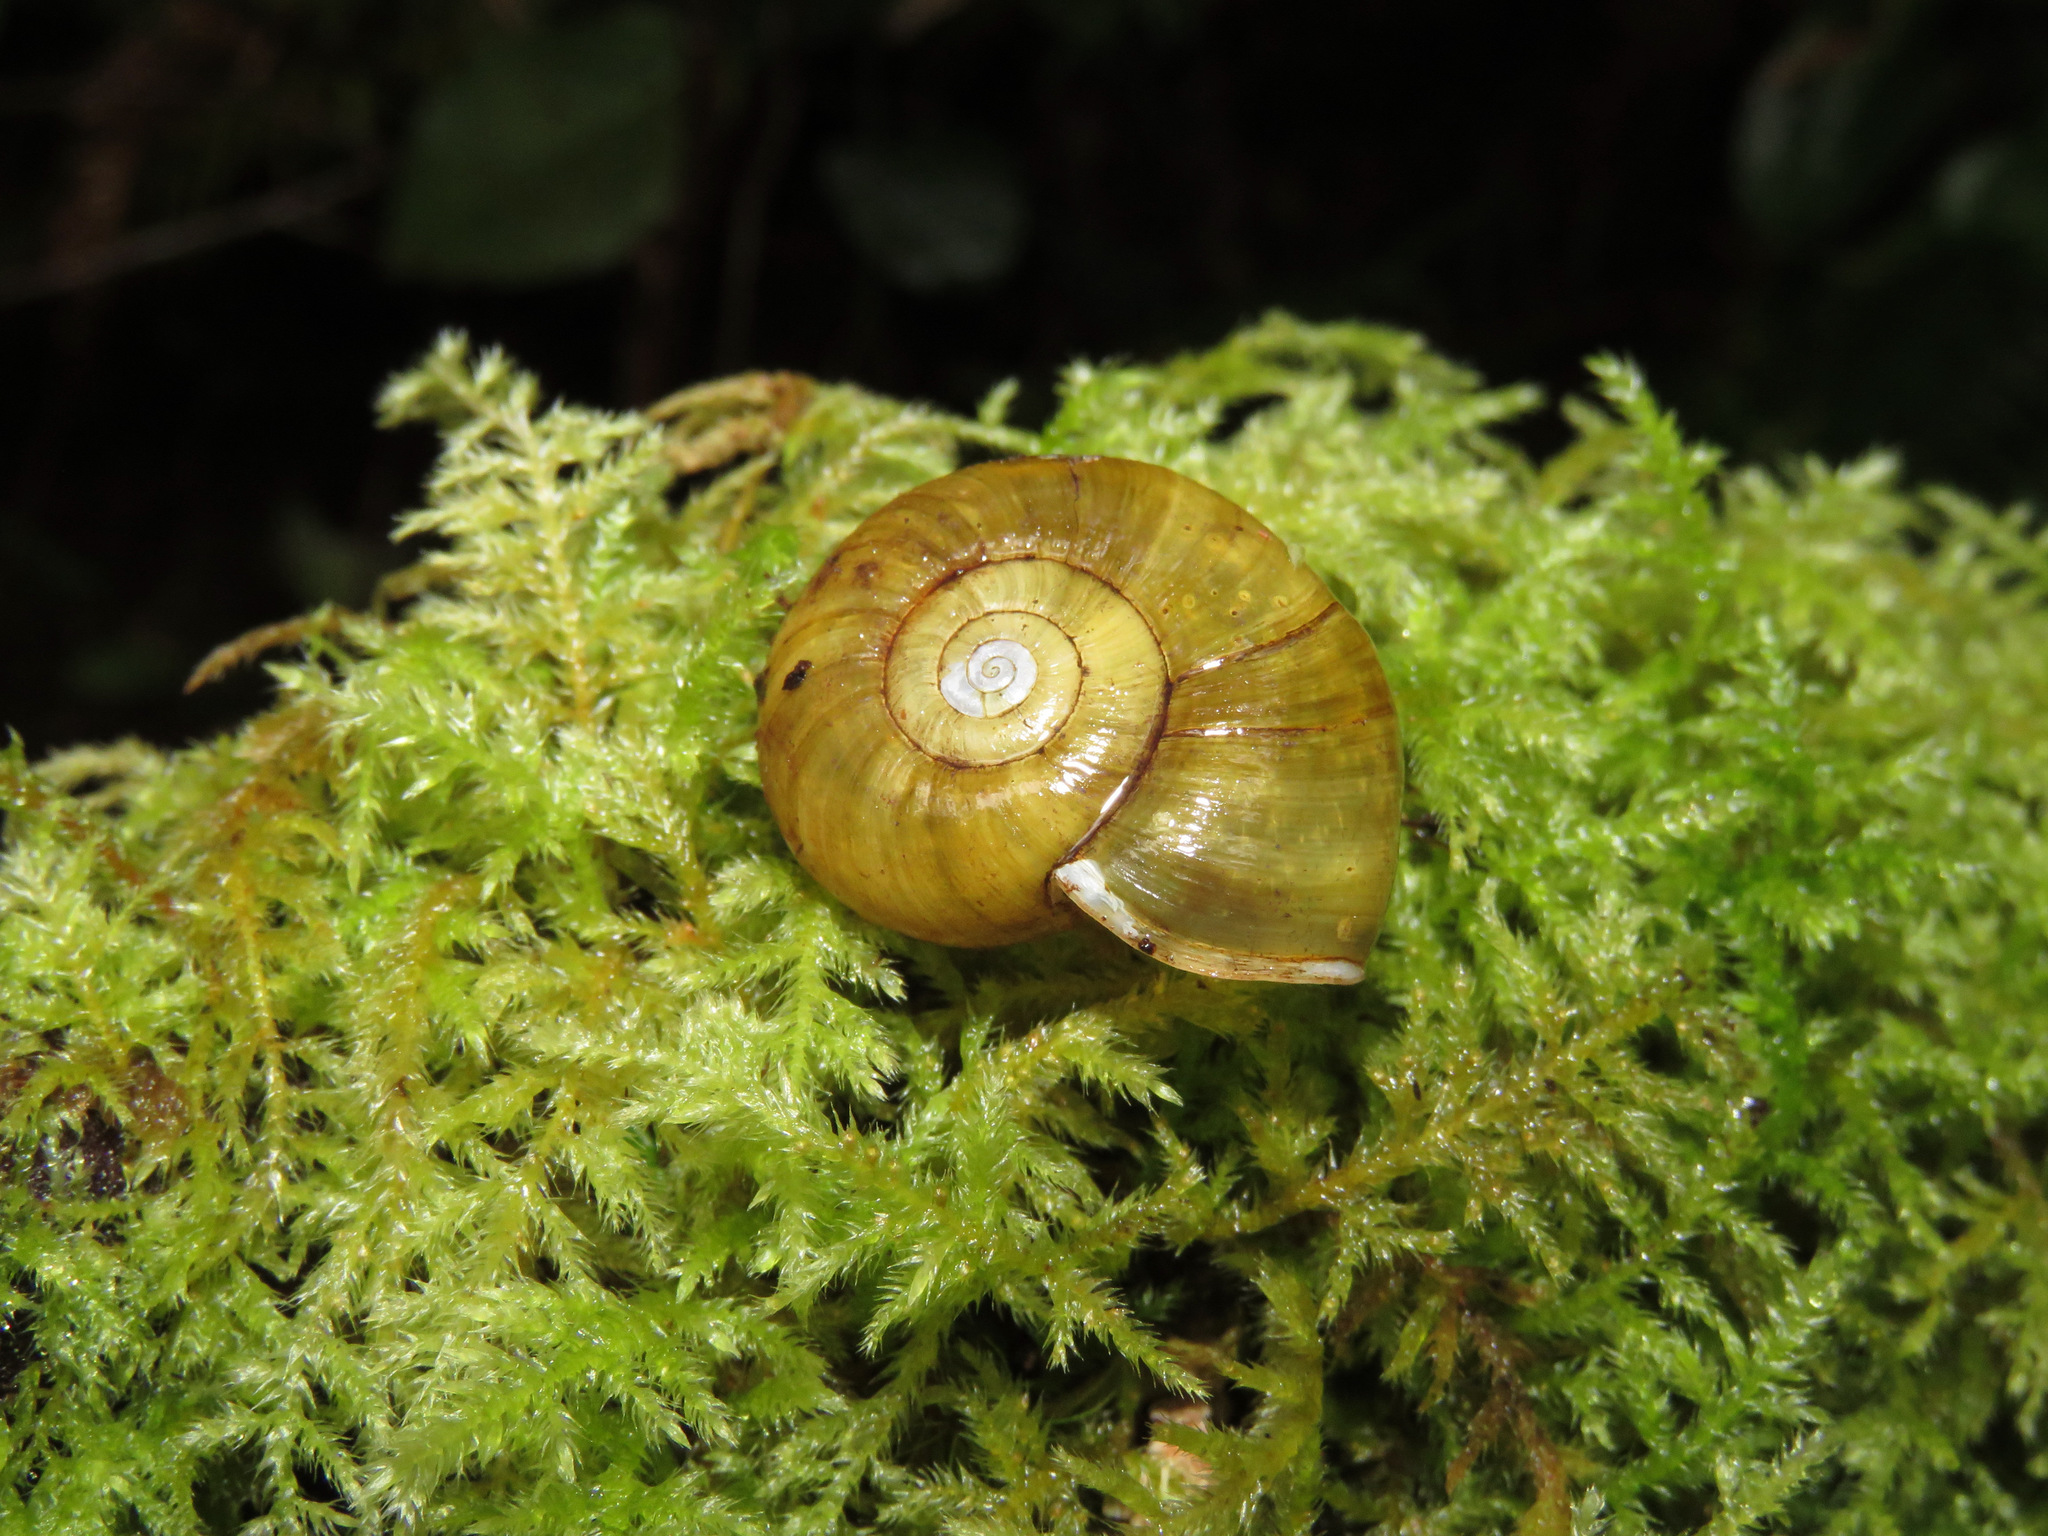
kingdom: Animalia
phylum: Mollusca
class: Gastropoda
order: Stylommatophora
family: Haplotrematidae
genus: Haplotrema
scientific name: Haplotrema vancouverense
